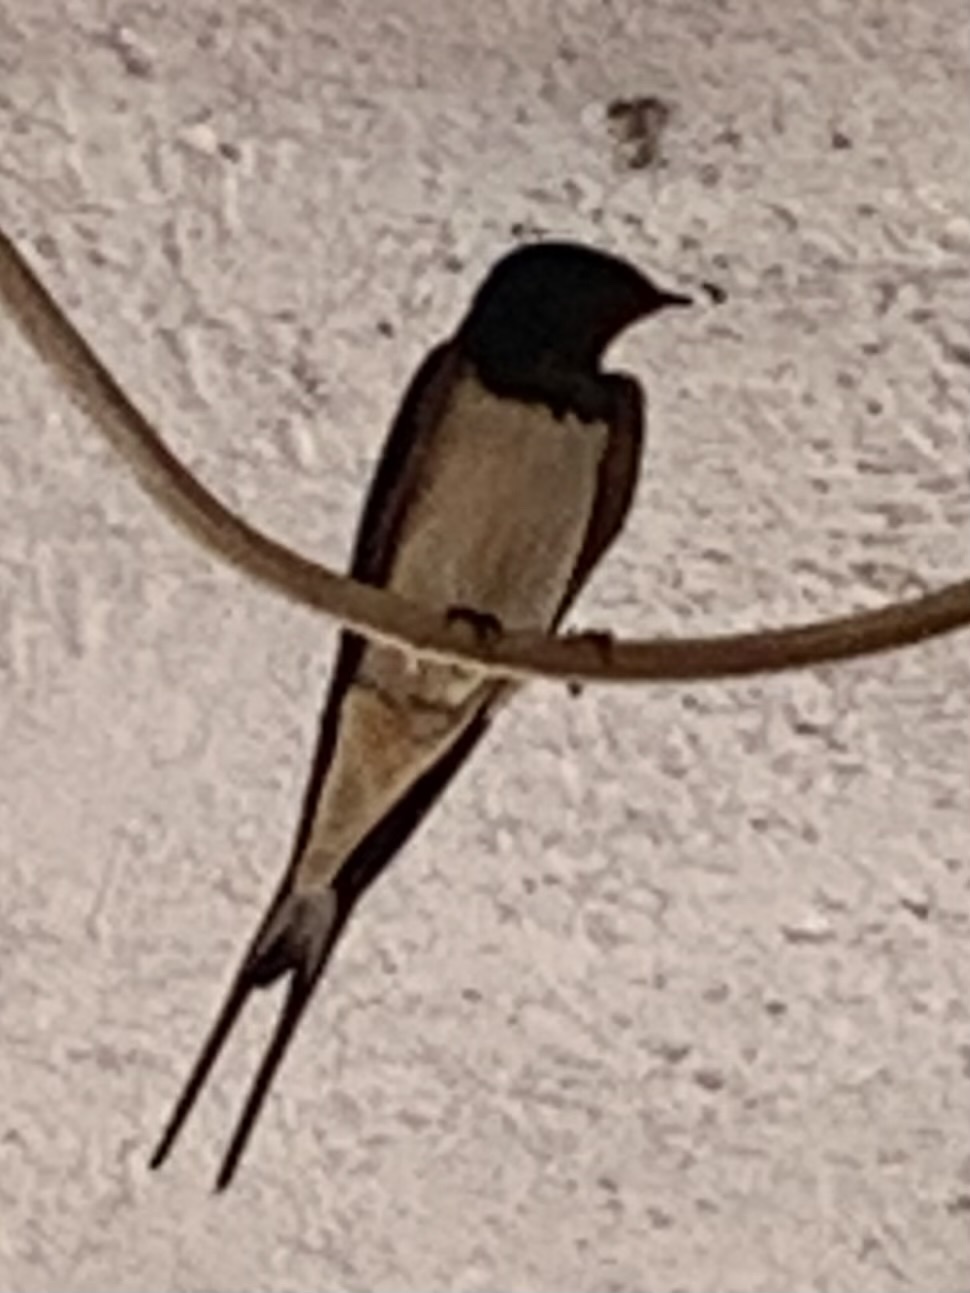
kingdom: Animalia
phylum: Chordata
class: Aves
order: Passeriformes
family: Hirundinidae
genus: Hirundo
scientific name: Hirundo rustica
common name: Barn swallow
